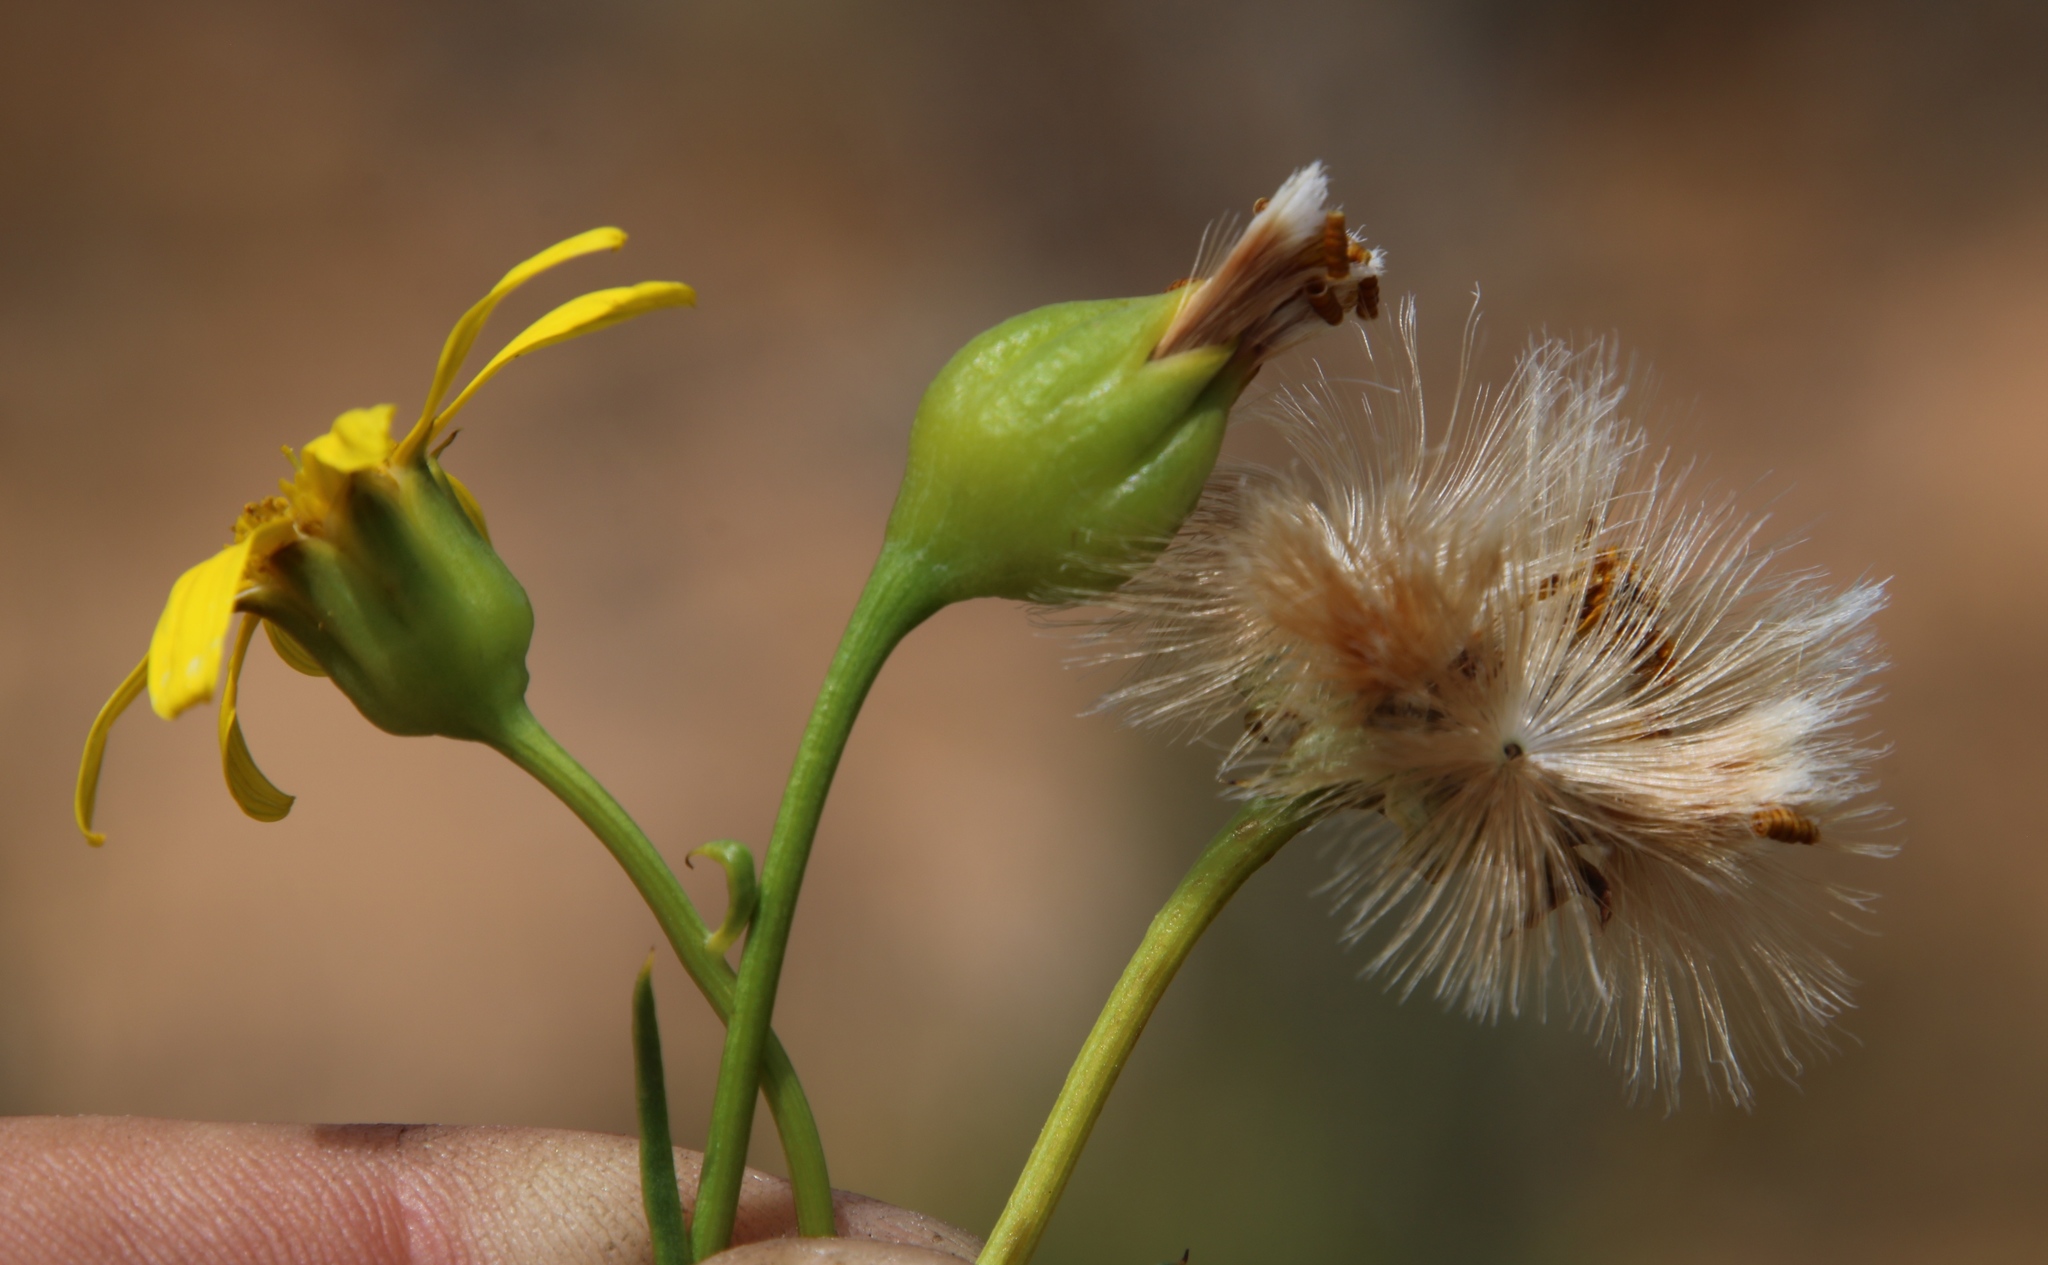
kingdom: Plantae
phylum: Tracheophyta
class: Magnoliopsida
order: Asterales
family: Asteraceae
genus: Othonna
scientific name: Othonna leptodactyla
